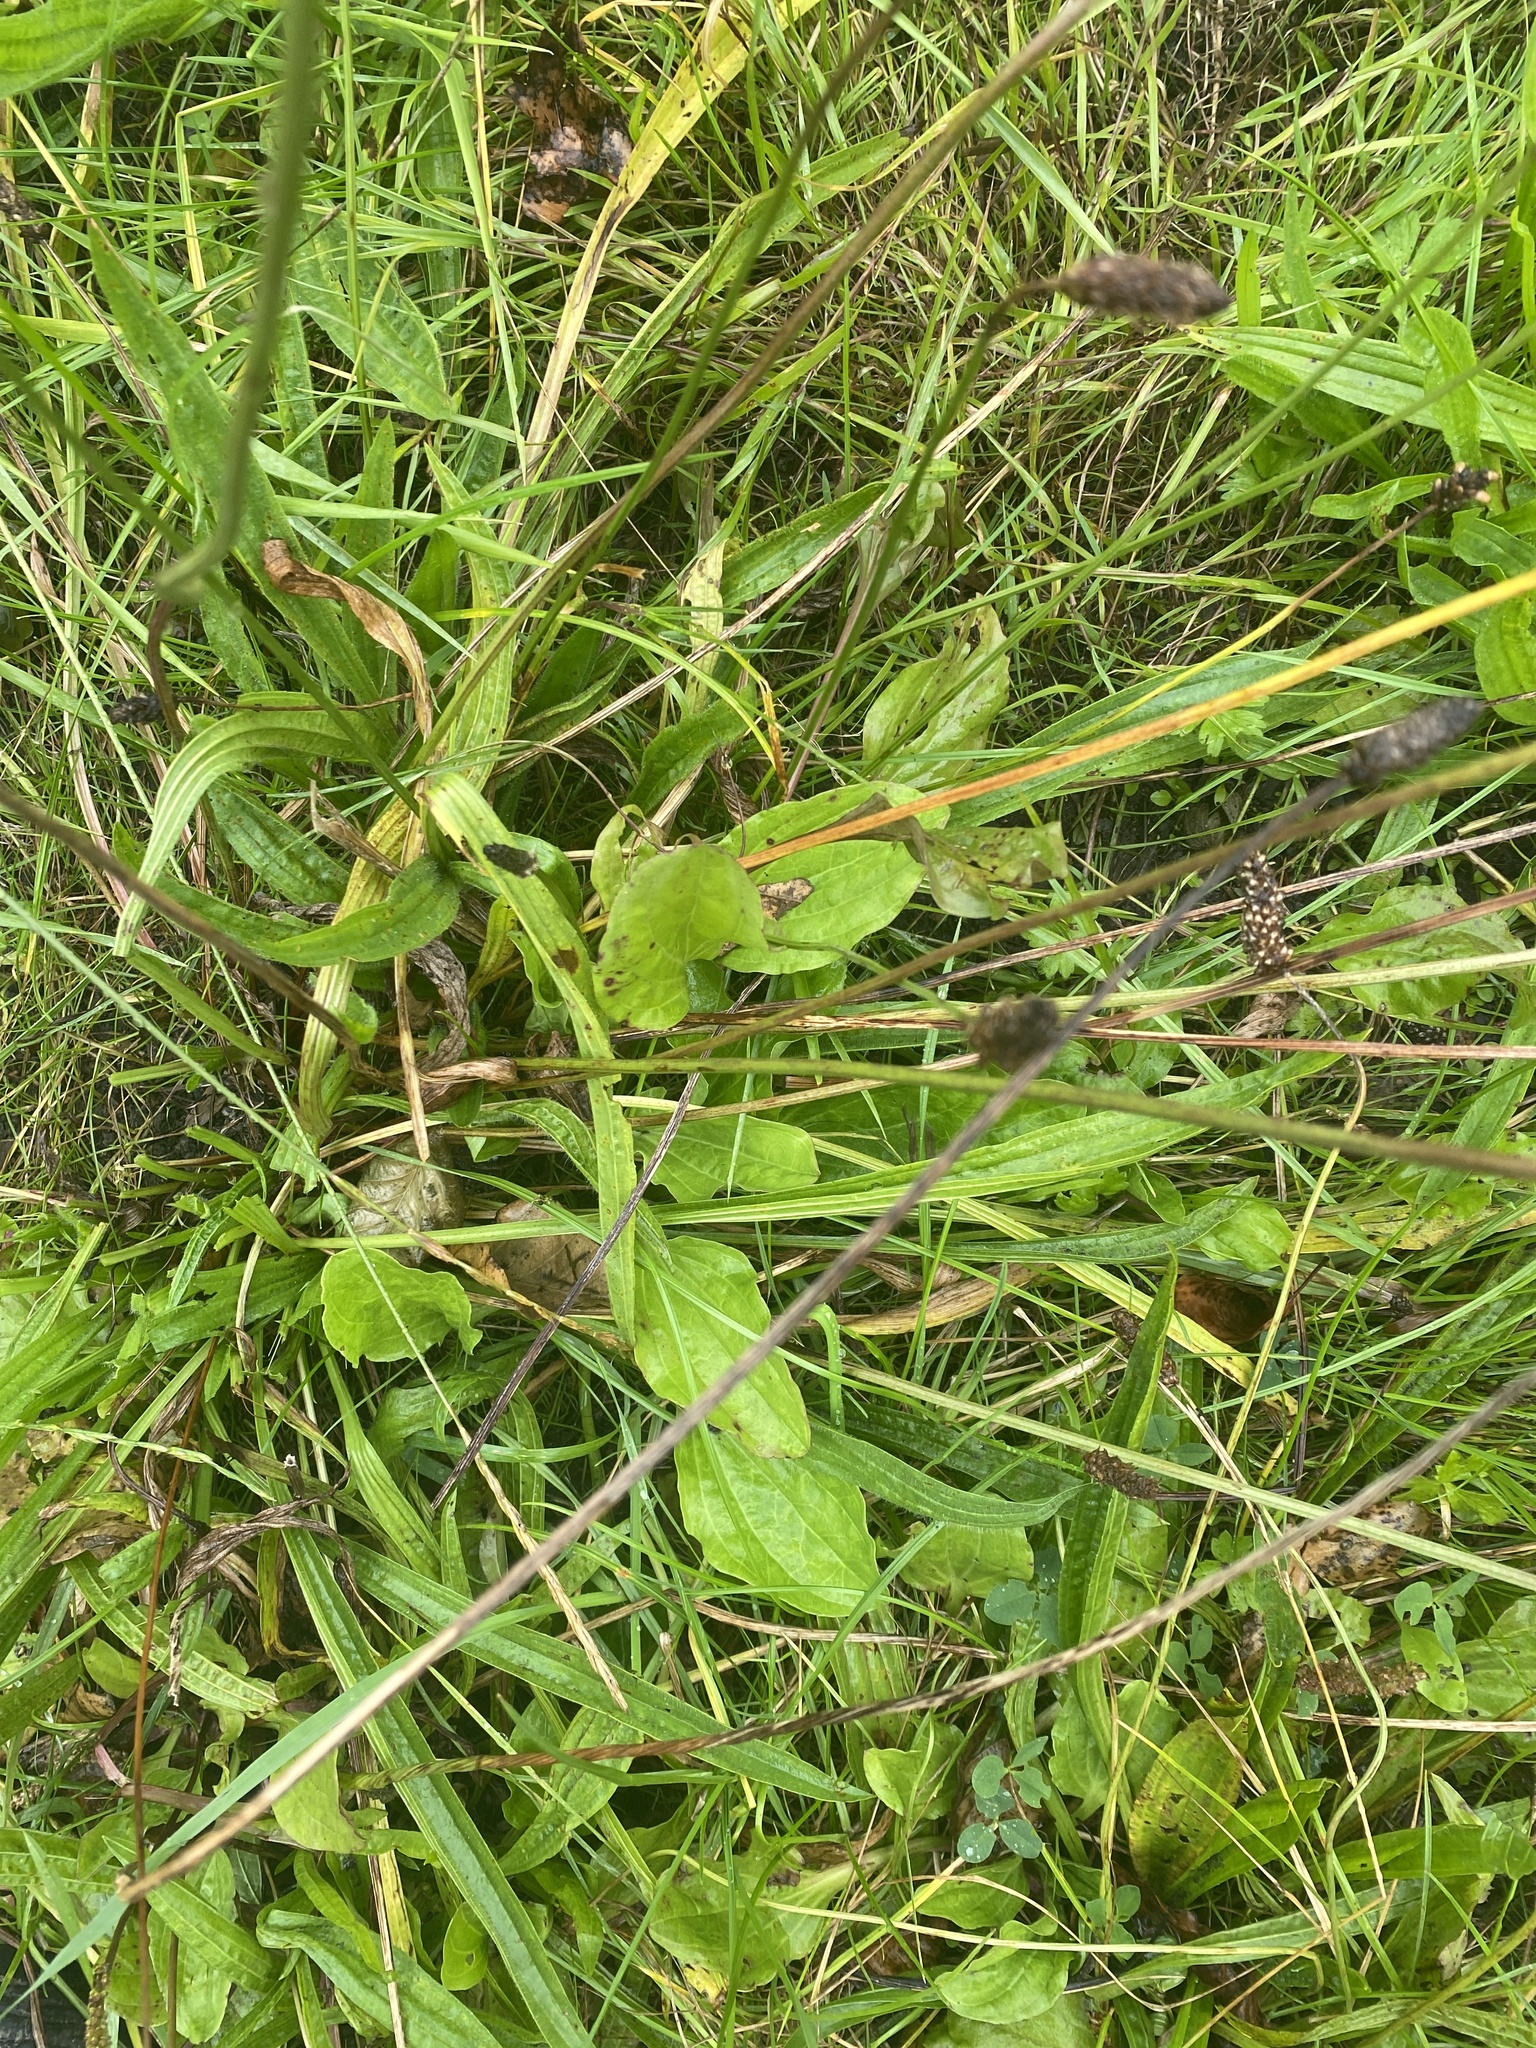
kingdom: Plantae
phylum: Tracheophyta
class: Magnoliopsida
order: Lamiales
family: Plantaginaceae
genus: Plantago
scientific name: Plantago lanceolata
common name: Ribwort plantain
